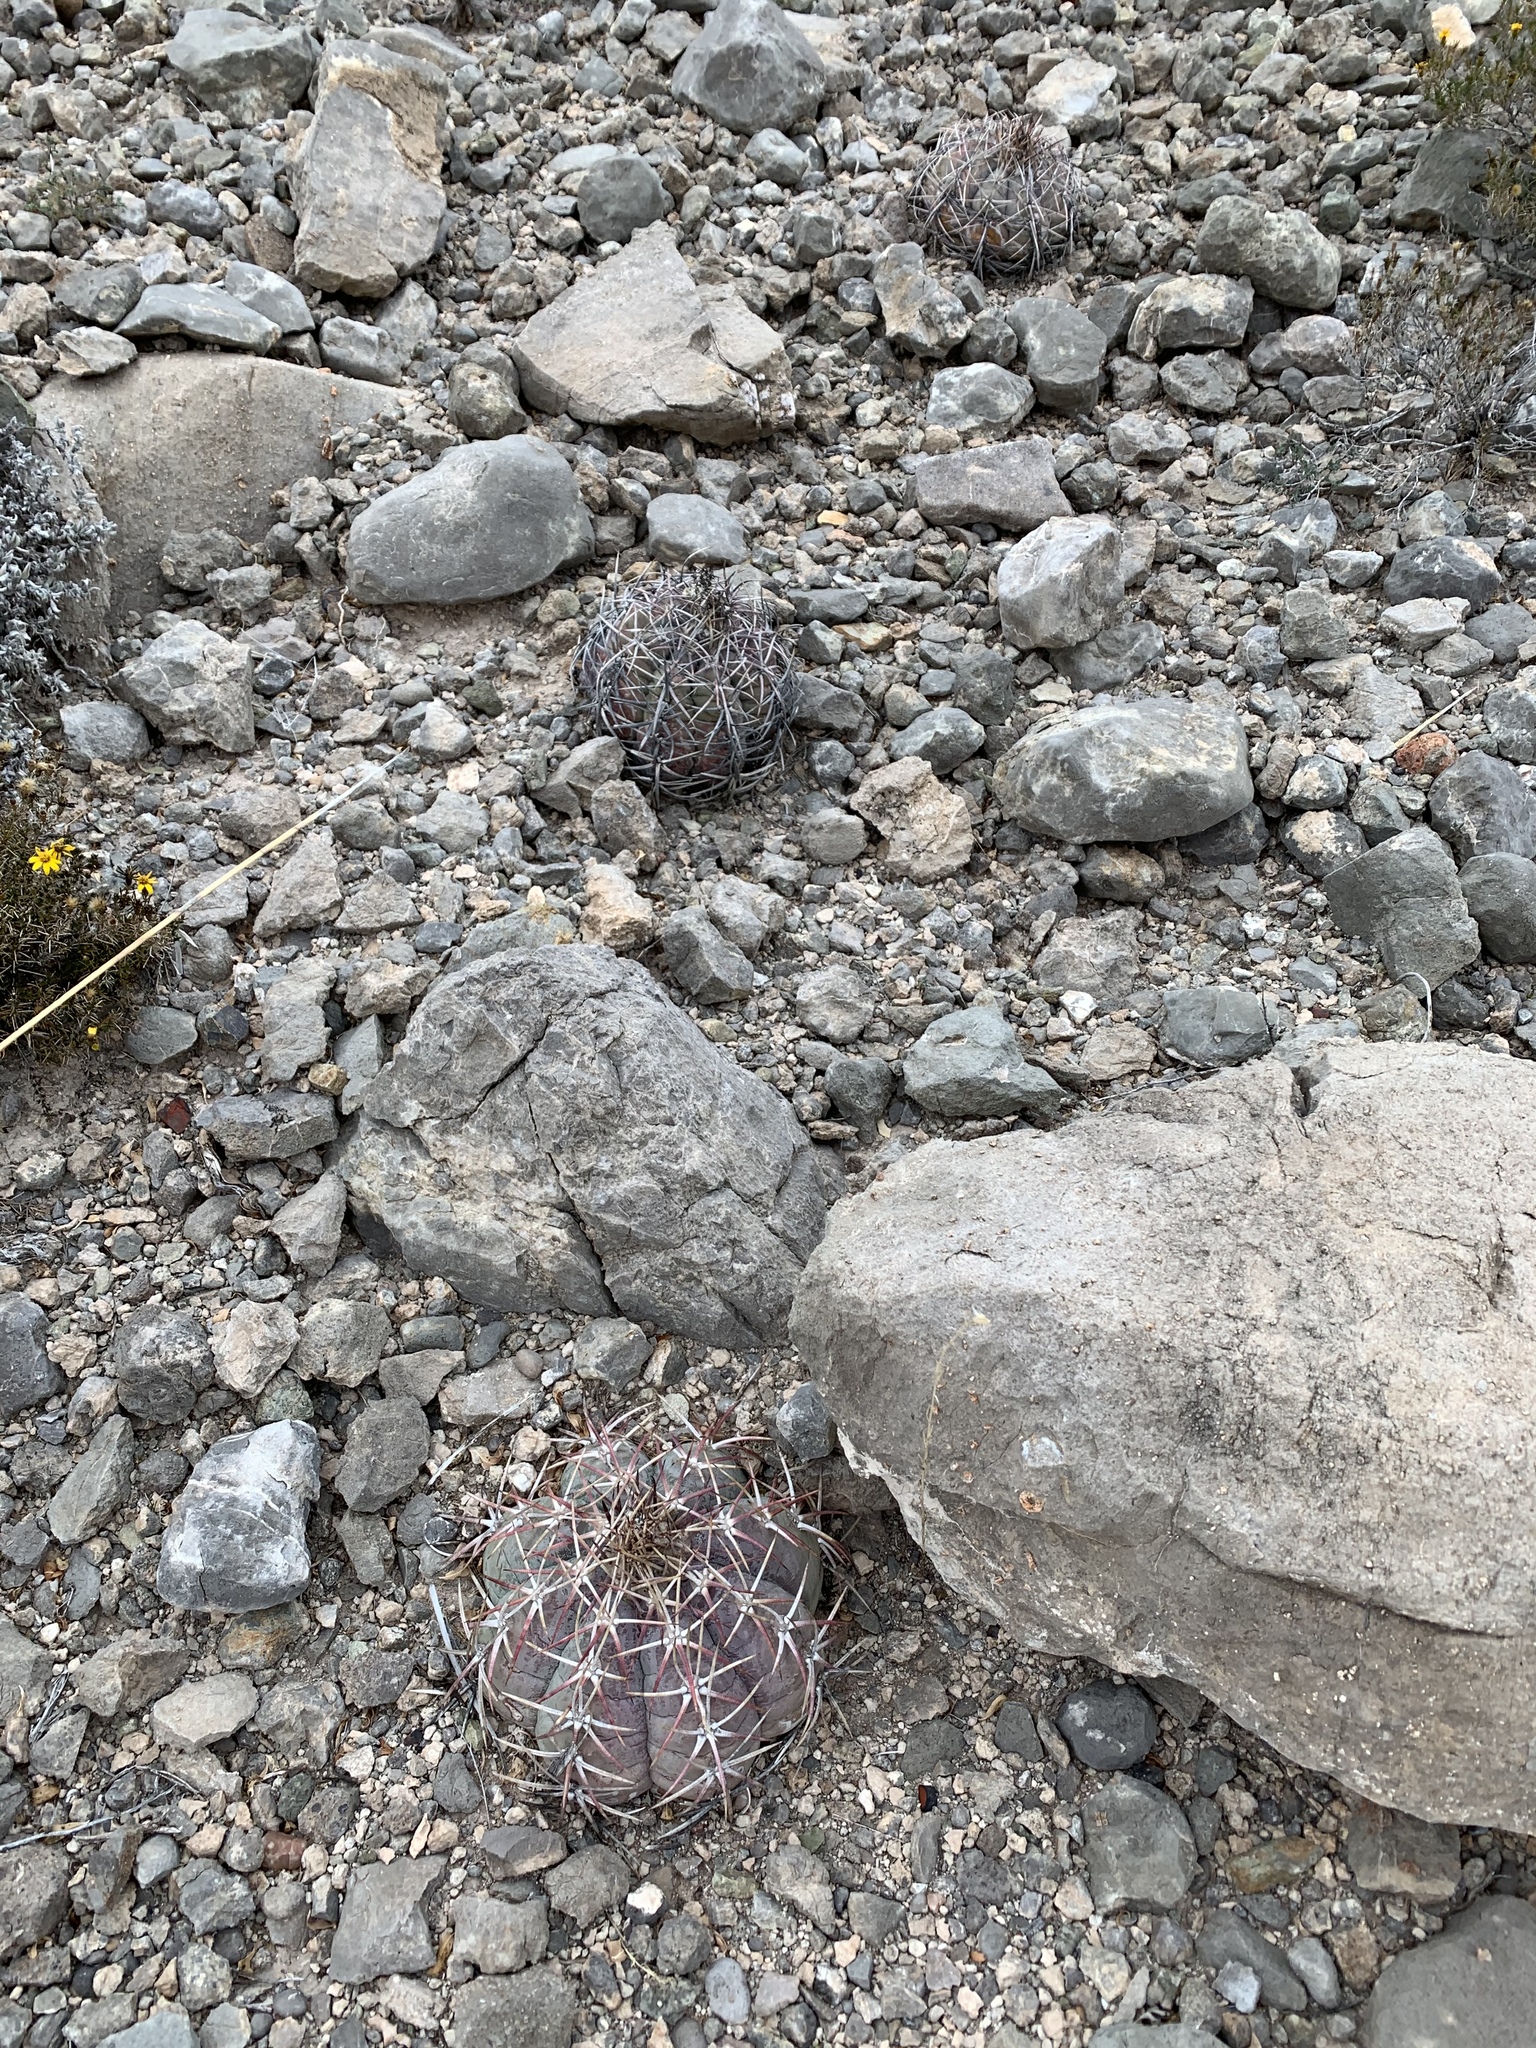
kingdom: Plantae
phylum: Tracheophyta
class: Magnoliopsida
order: Caryophyllales
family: Cactaceae
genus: Echinocactus
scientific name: Echinocactus horizonthalonius
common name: Devilshead
